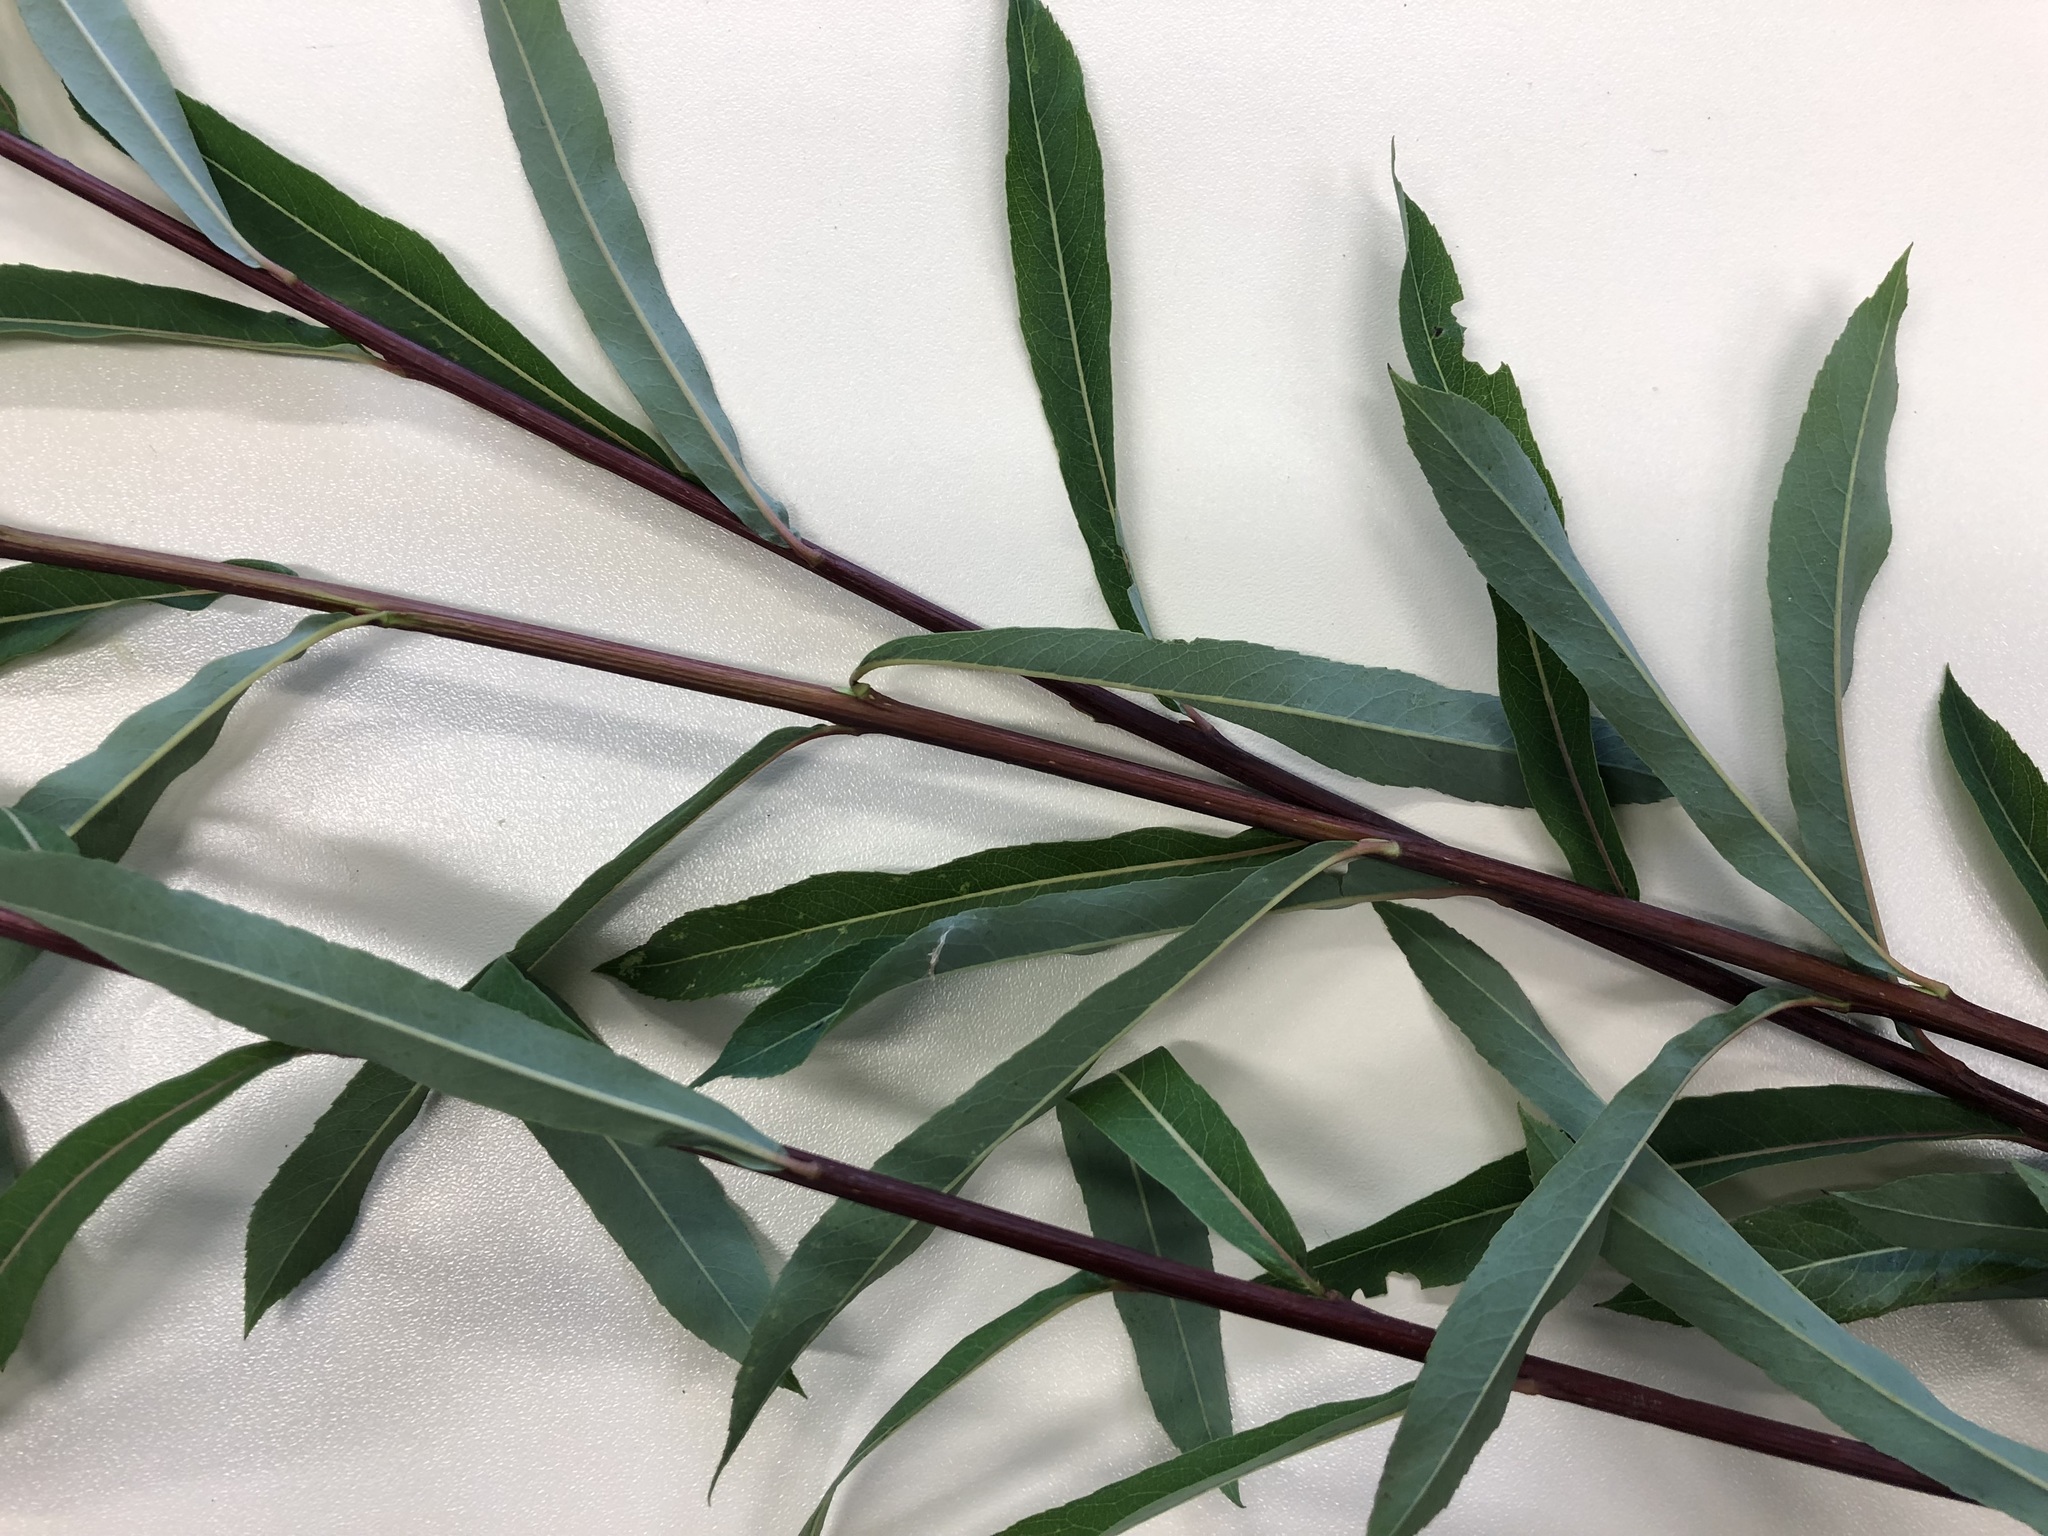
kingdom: Plantae
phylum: Tracheophyta
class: Magnoliopsida
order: Malpighiales
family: Salicaceae
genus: Salix
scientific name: Salix purpurea
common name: Purple willow
